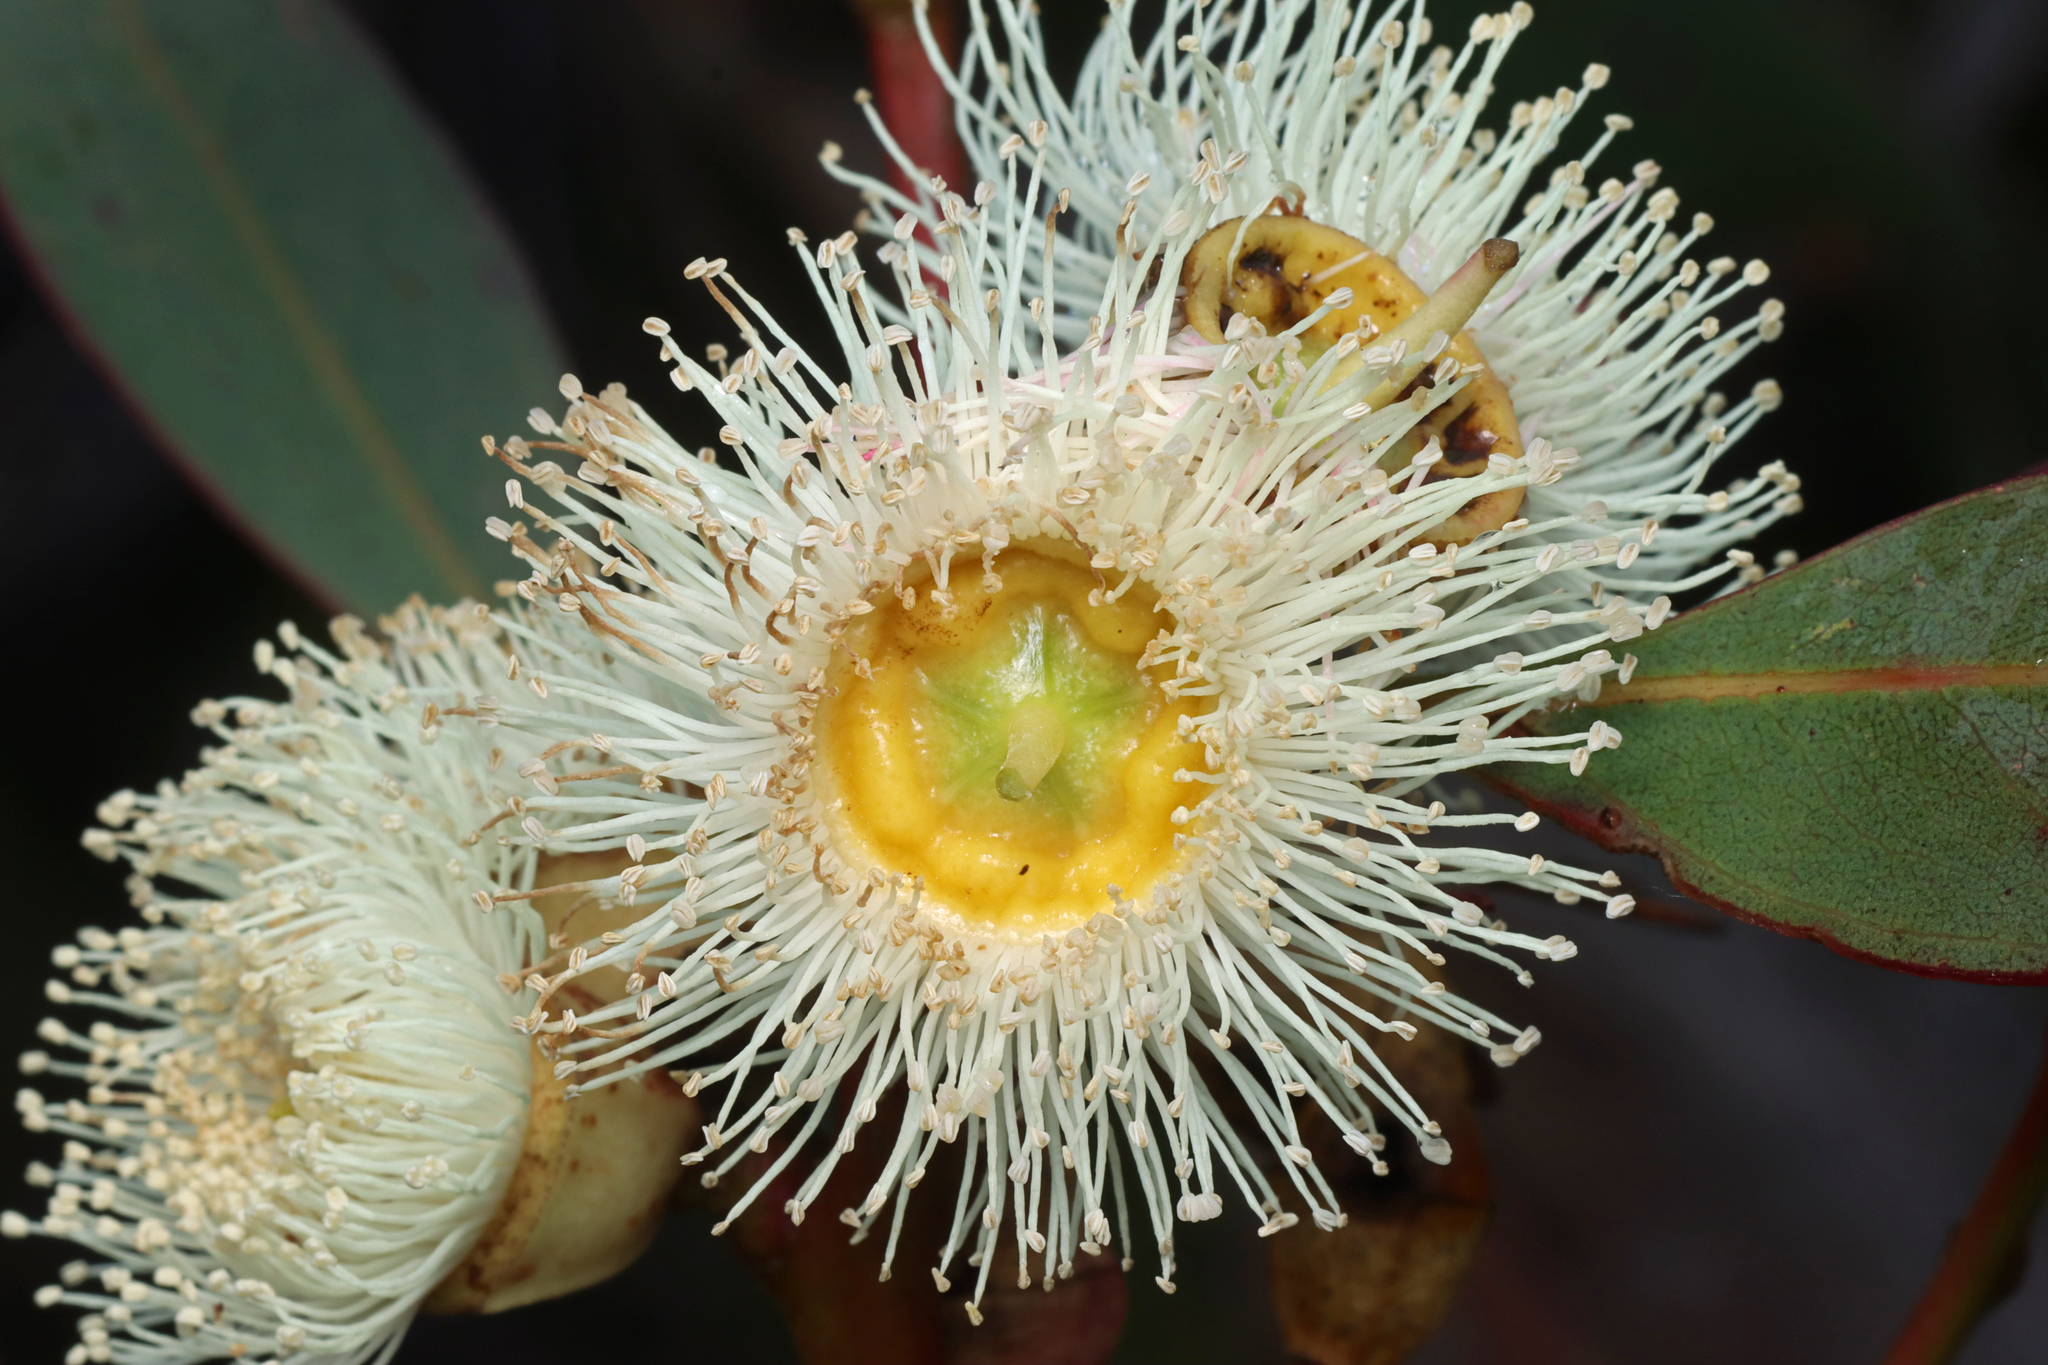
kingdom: Plantae
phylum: Tracheophyta
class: Magnoliopsida
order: Myrtales
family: Myrtaceae
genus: Eucalyptus
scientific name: Eucalyptus cosmophylla
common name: Bog-gum
